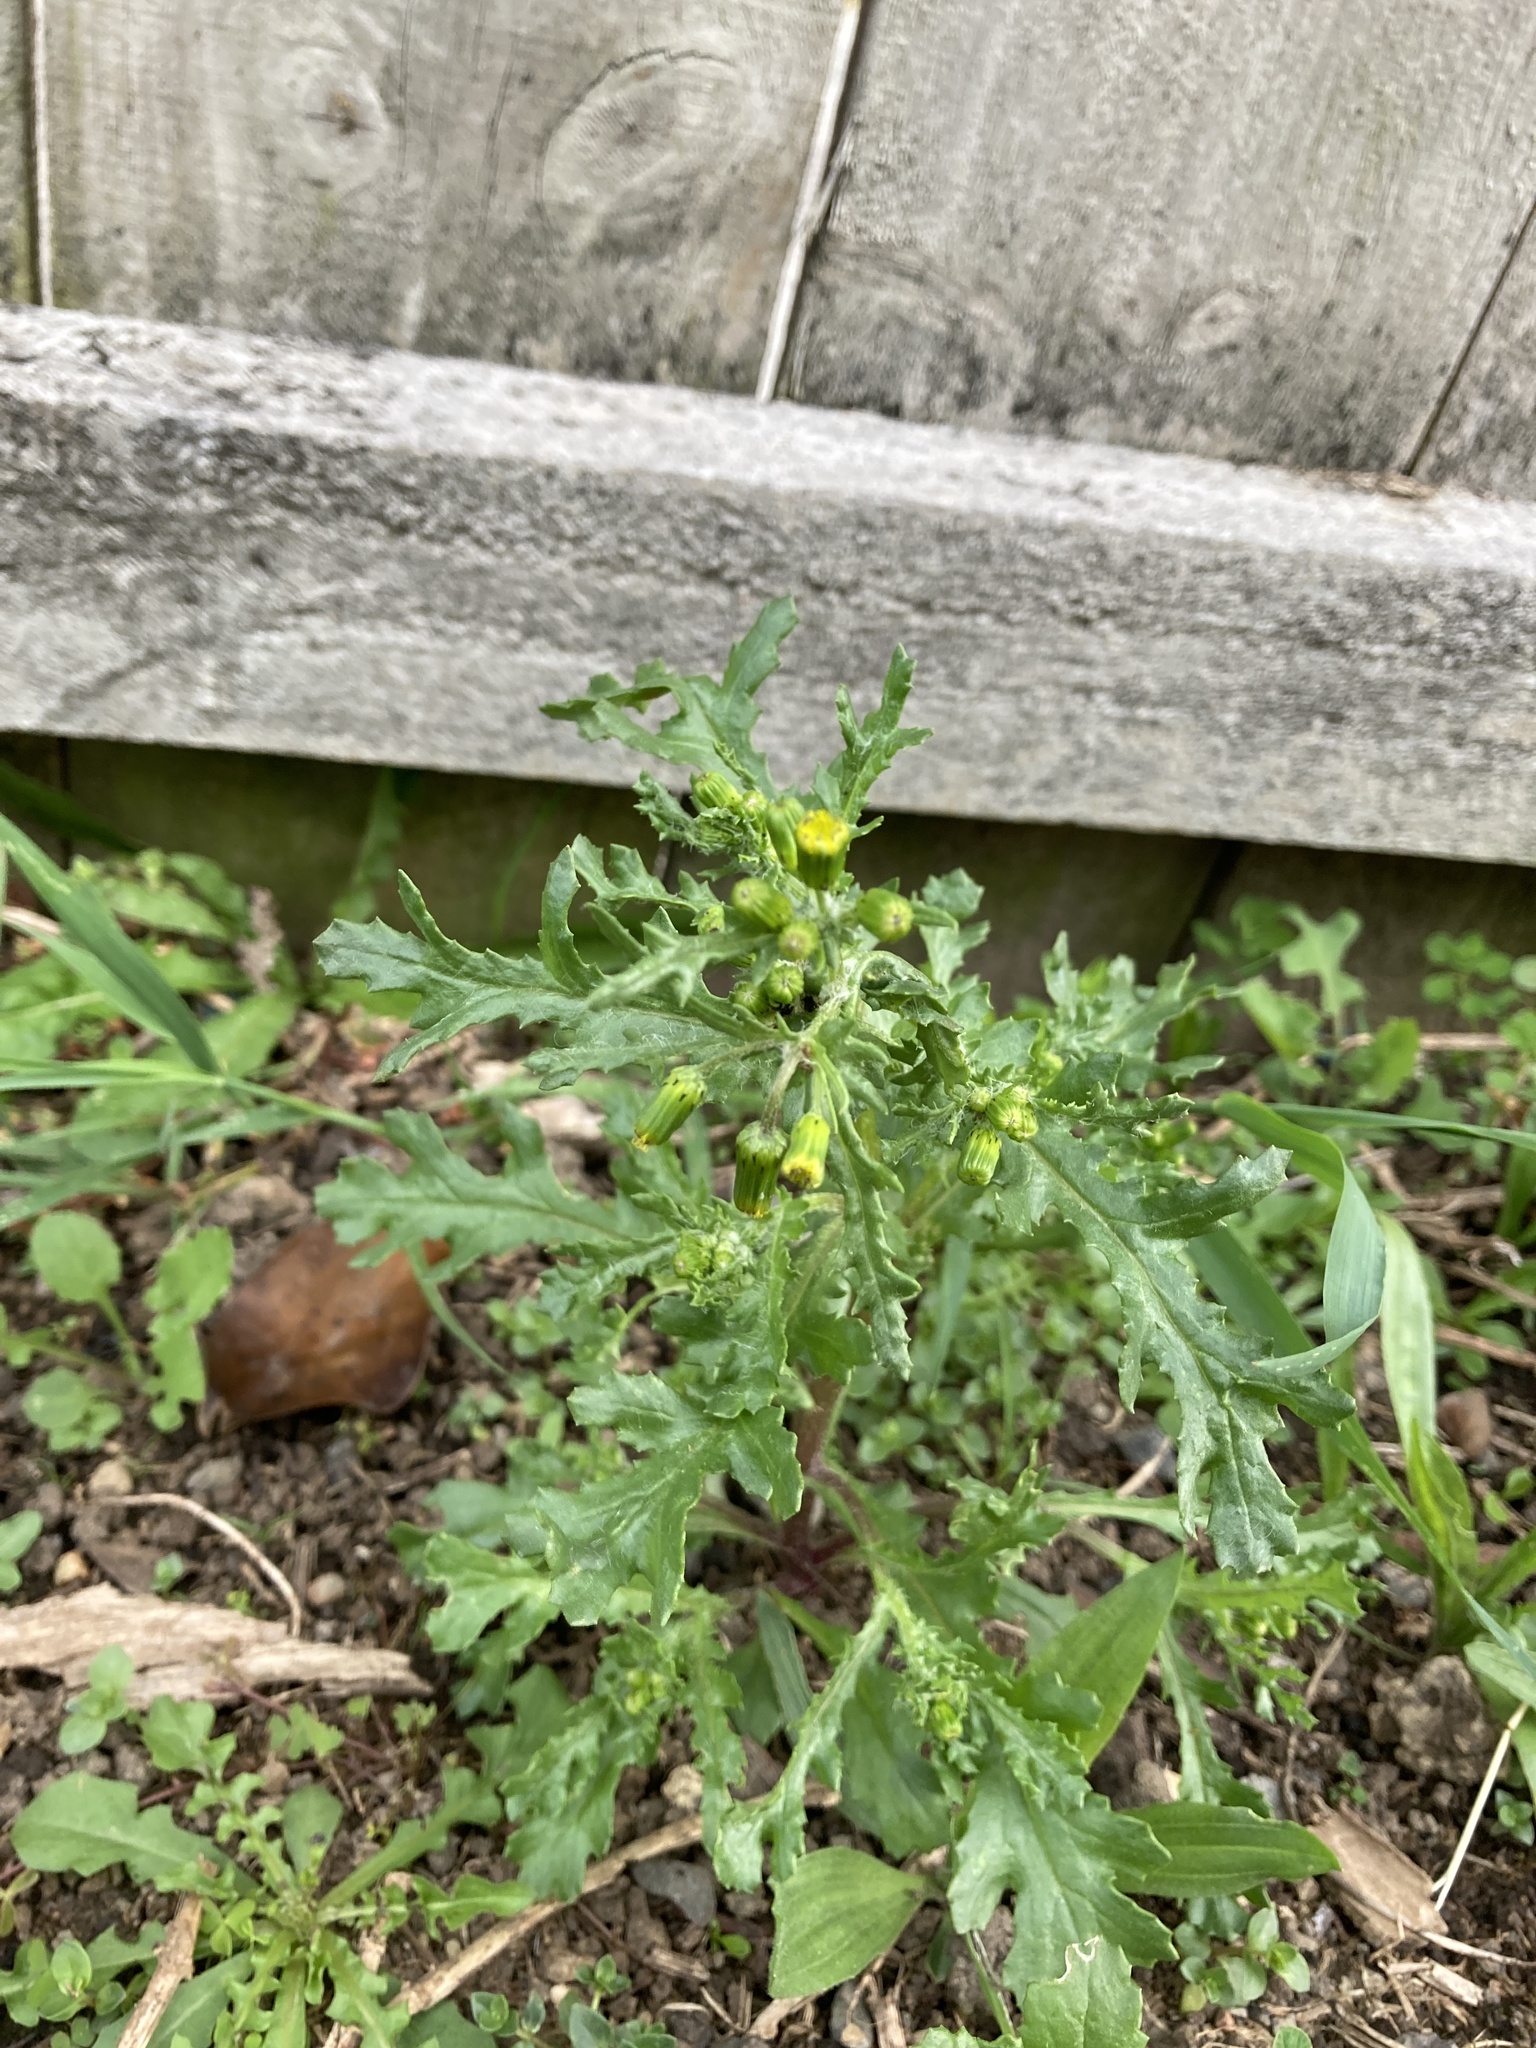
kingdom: Plantae
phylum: Tracheophyta
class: Magnoliopsida
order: Asterales
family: Asteraceae
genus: Senecio
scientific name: Senecio vulgaris
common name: Old-man-in-the-spring
